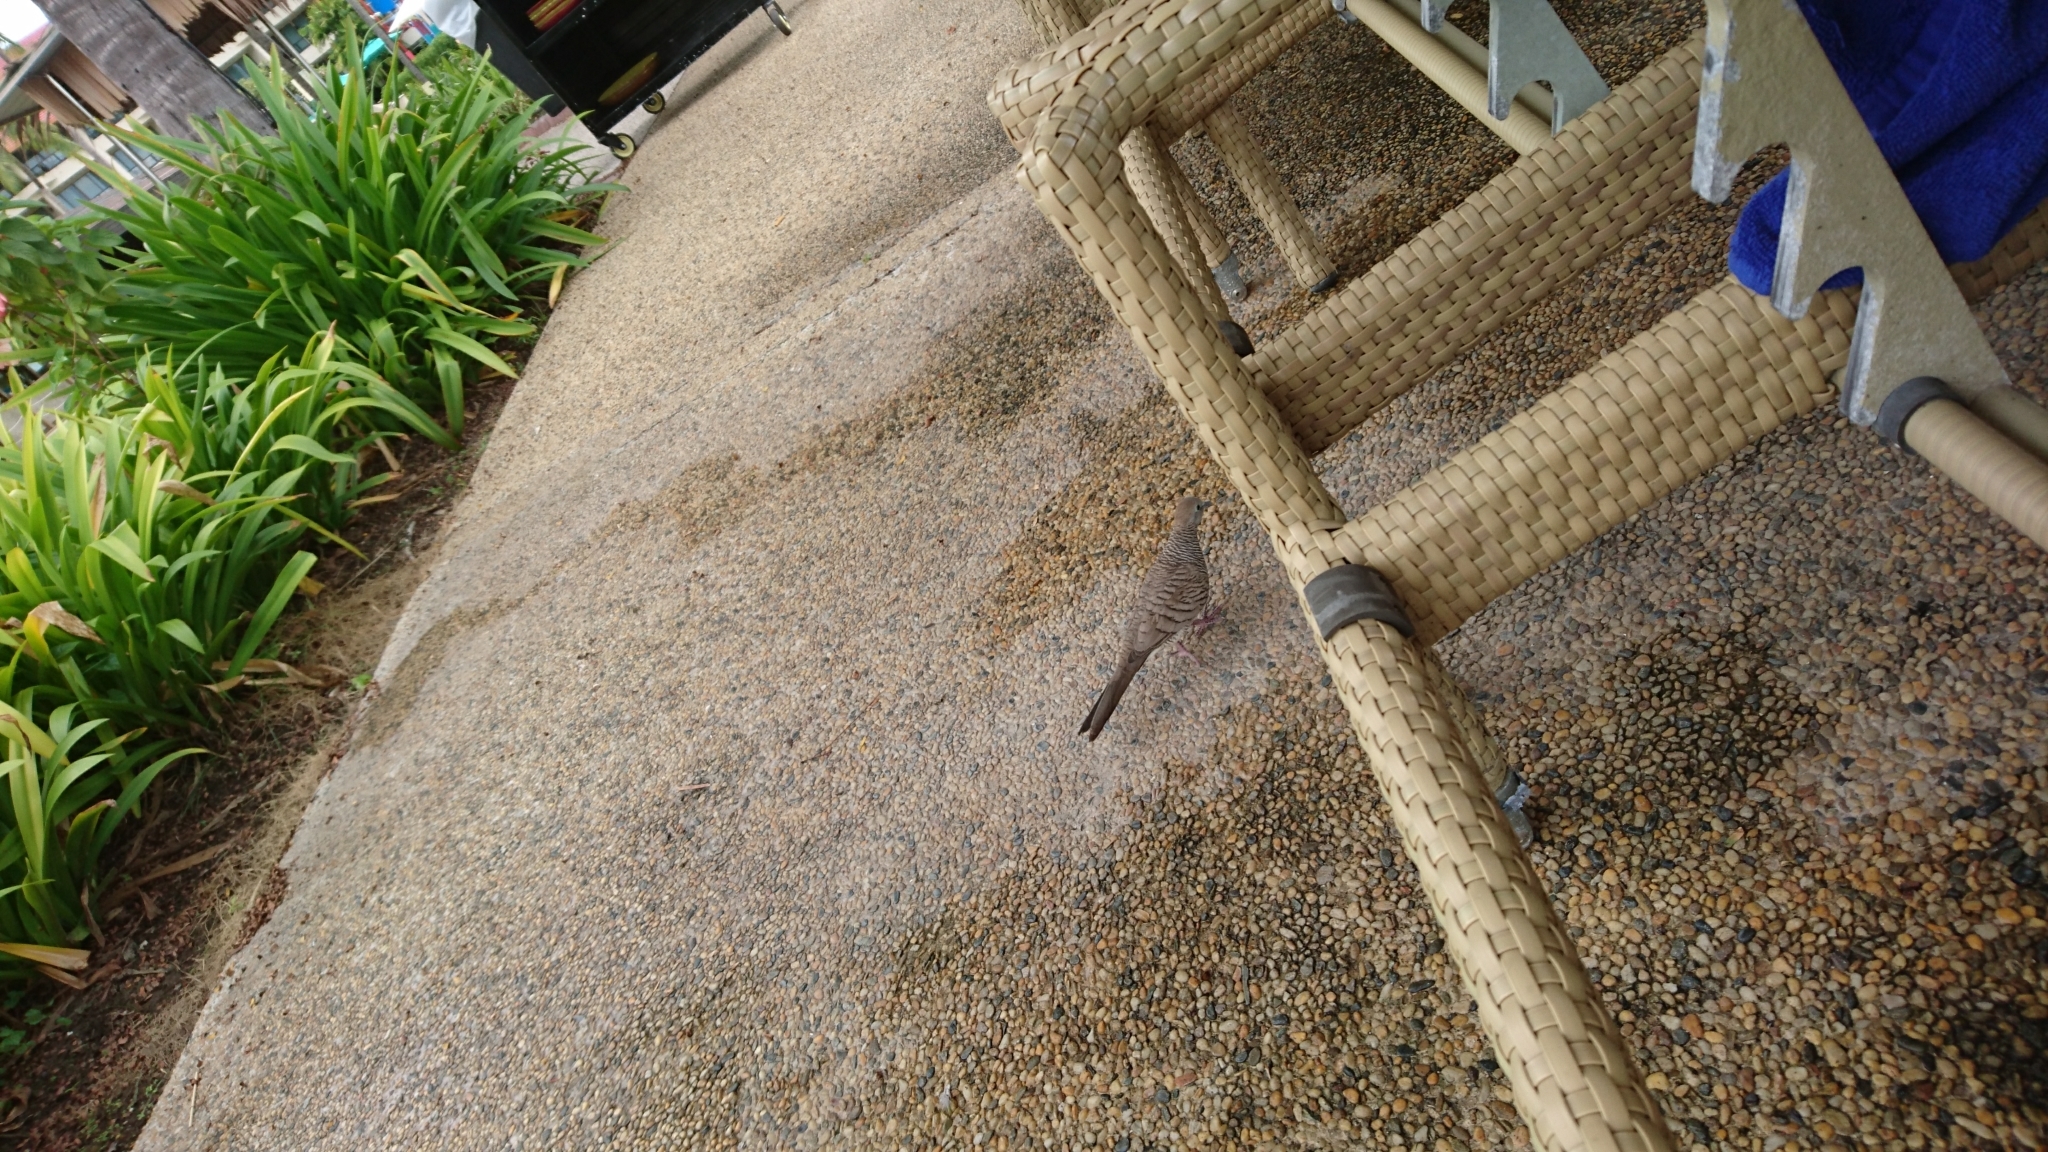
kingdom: Animalia
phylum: Chordata
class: Aves
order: Columbiformes
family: Columbidae
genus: Geopelia
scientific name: Geopelia striata
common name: Zebra dove
